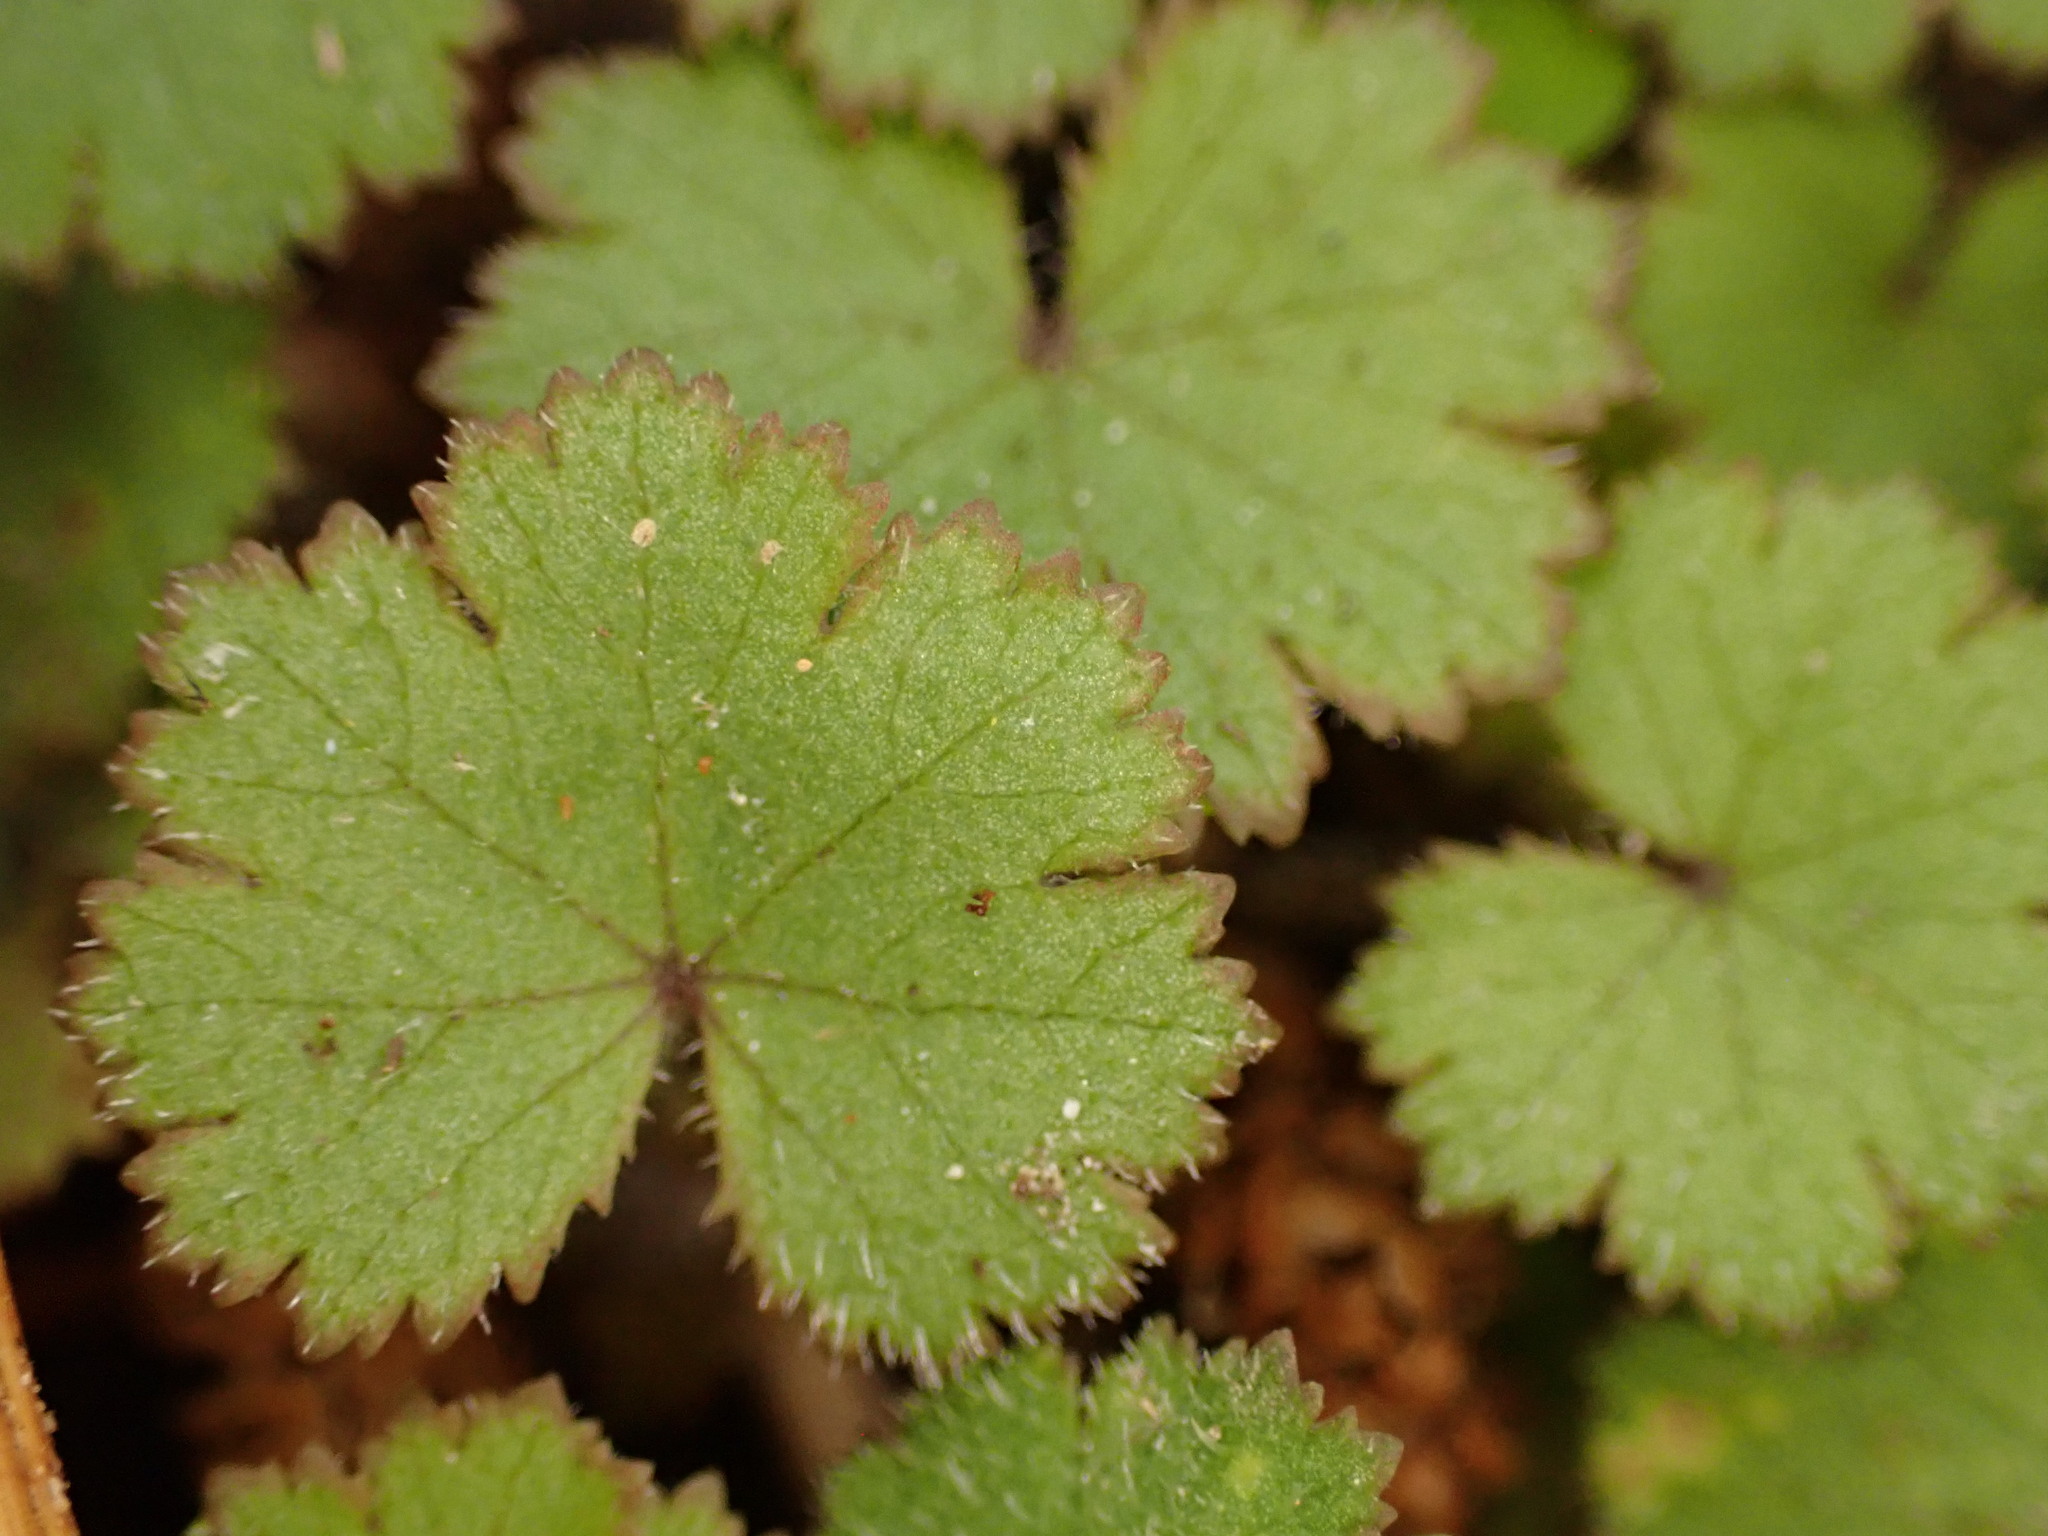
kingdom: Plantae
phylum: Tracheophyta
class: Magnoliopsida
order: Apiales
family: Araliaceae
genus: Hydrocotyle
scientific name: Hydrocotyle moschata
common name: Hairy pennywort
